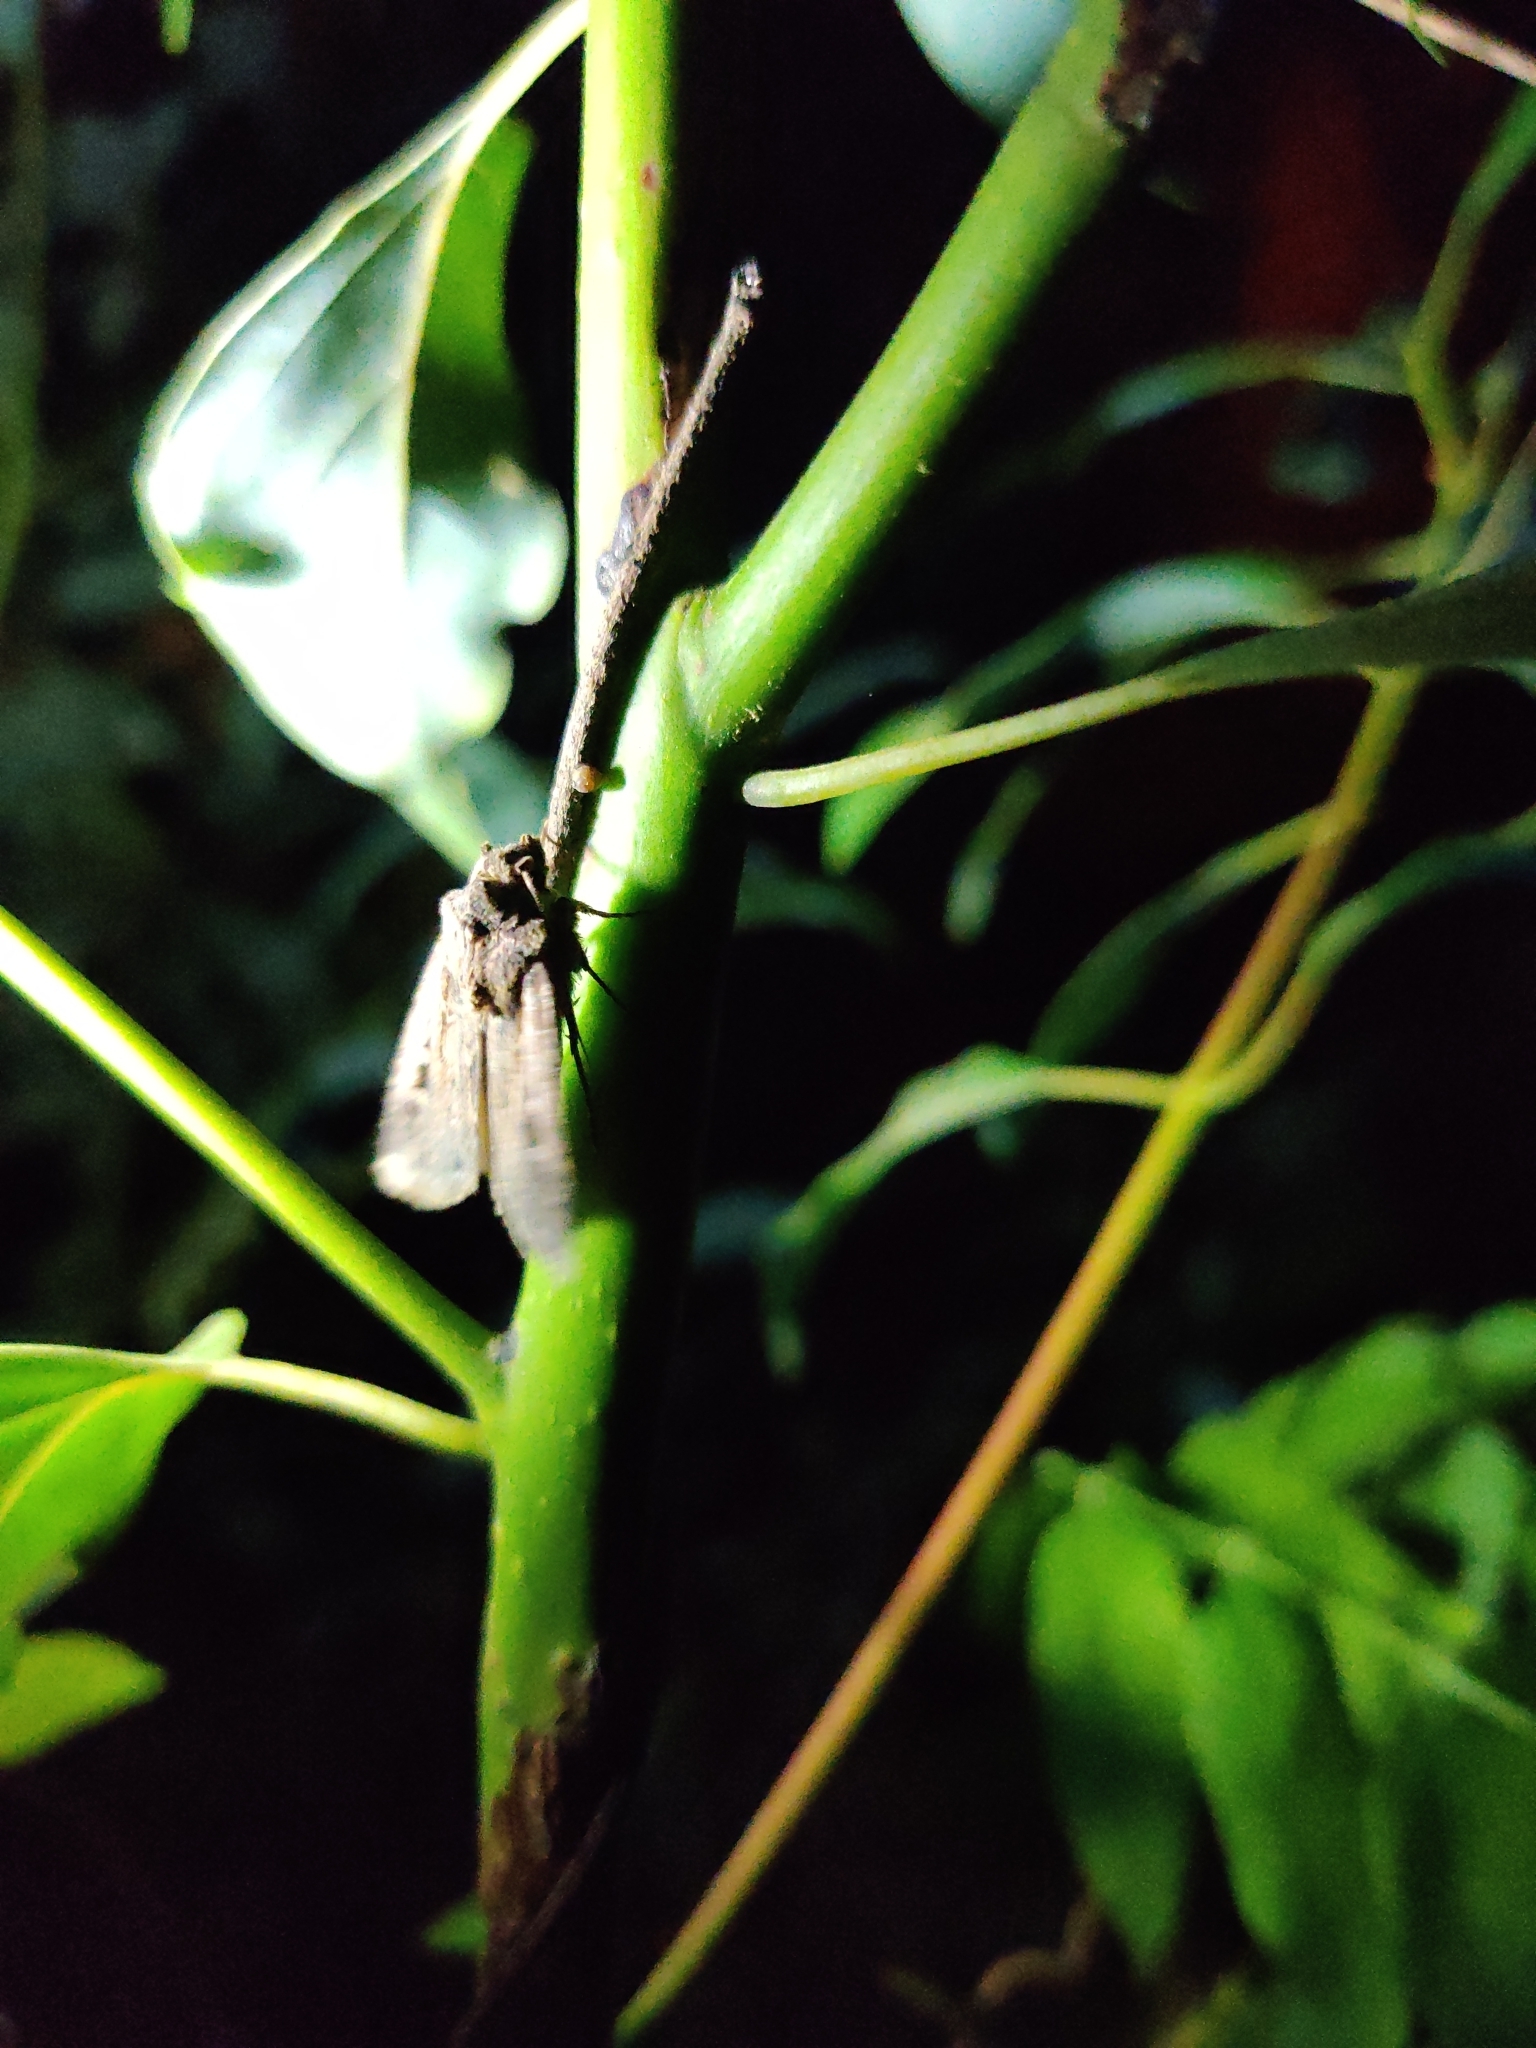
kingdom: Animalia
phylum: Arthropoda
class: Insecta
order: Lepidoptera
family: Noctuidae
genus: Feltia
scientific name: Feltia subterranea
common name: Granulate cutworm
